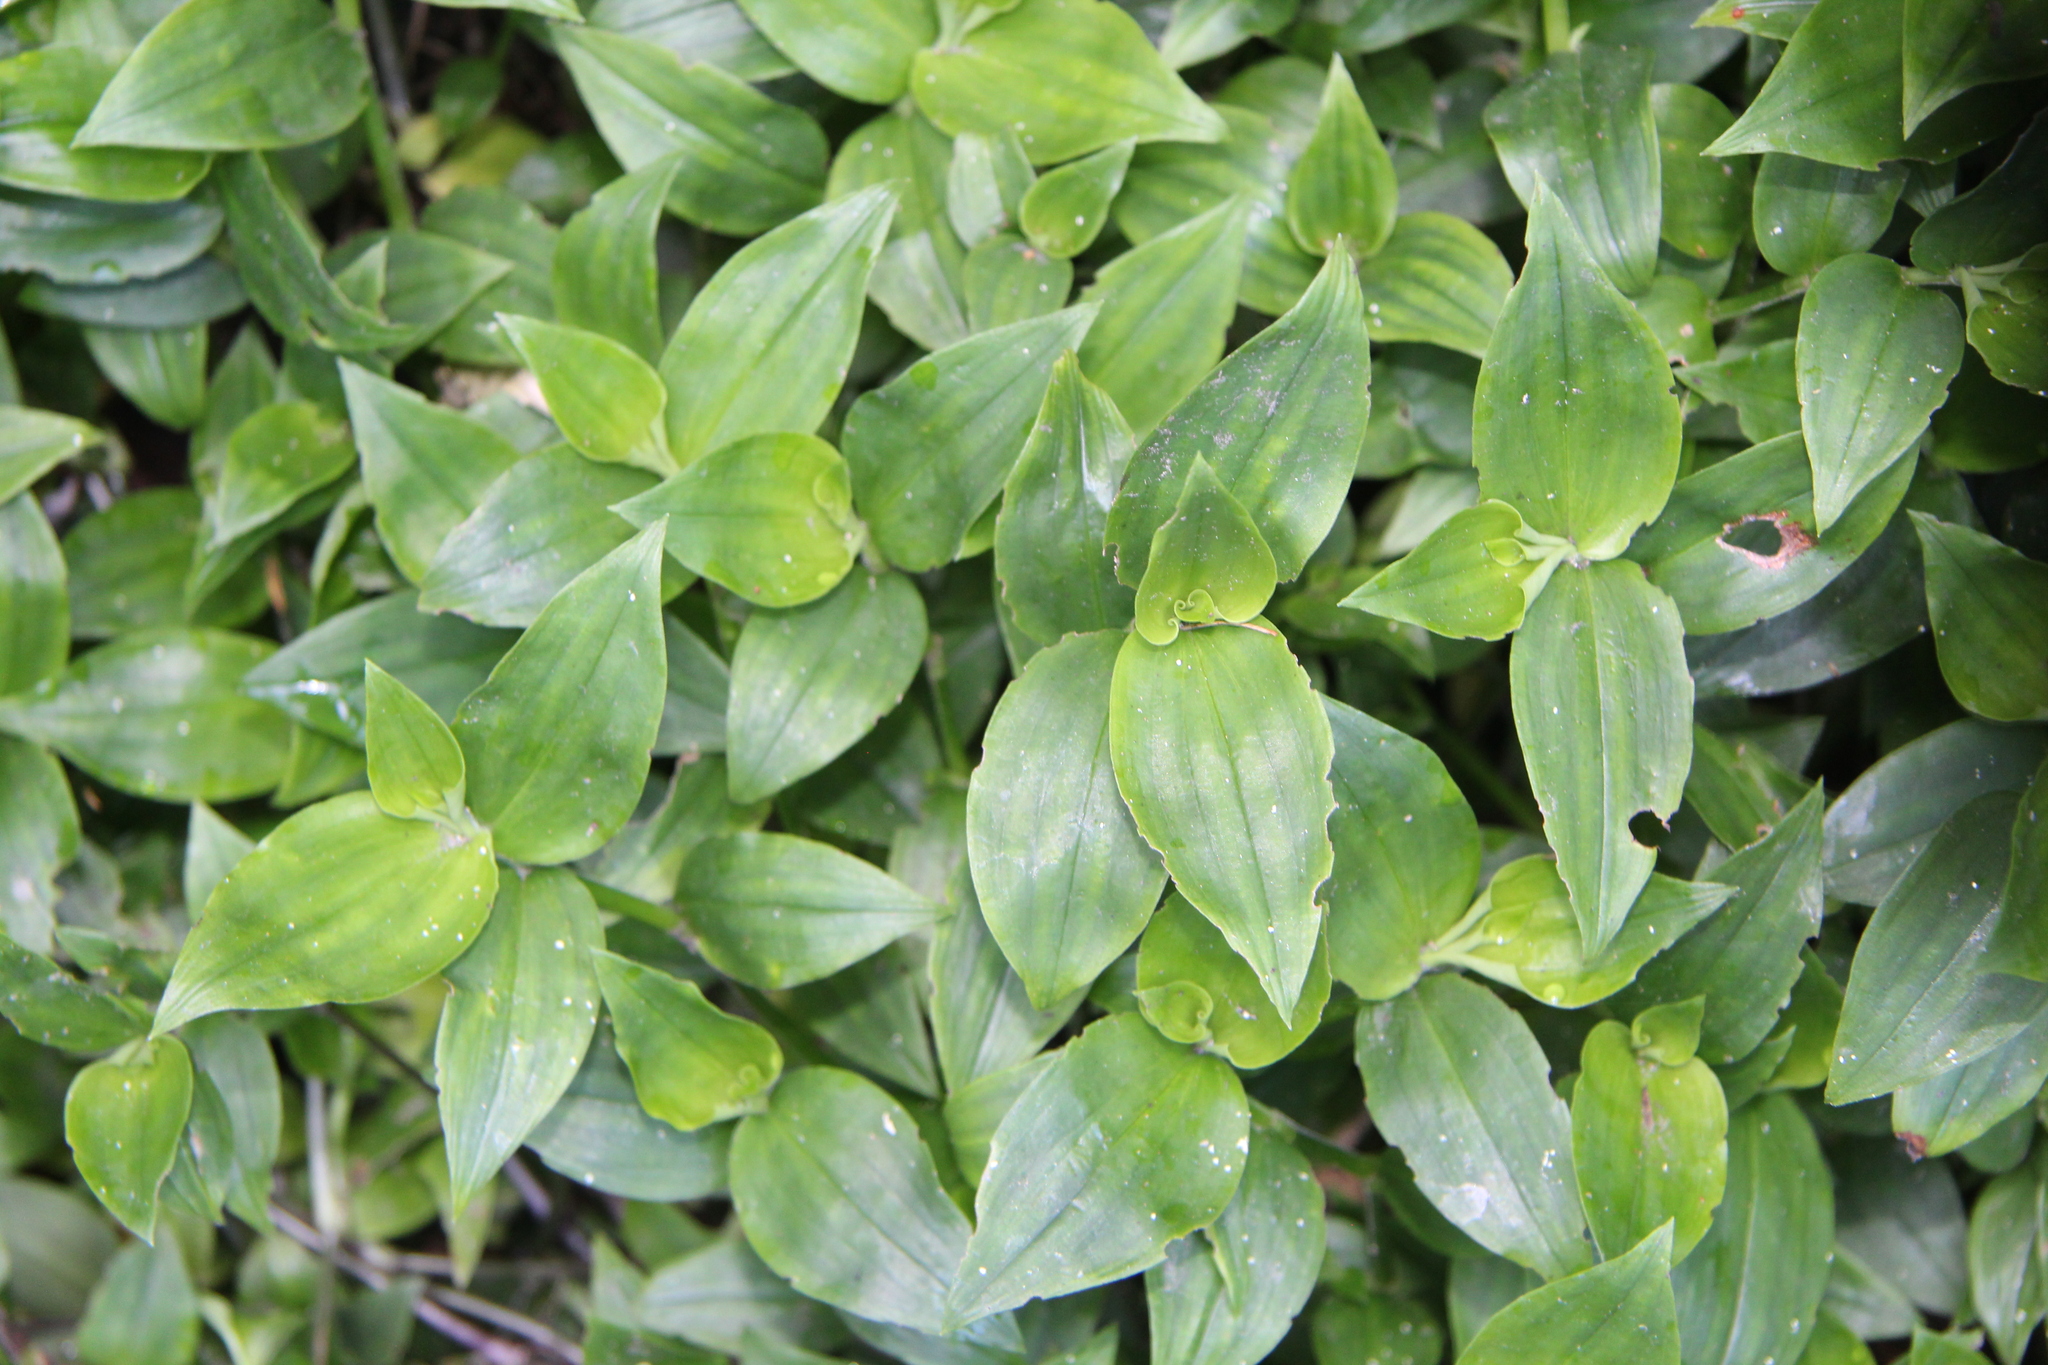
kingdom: Plantae
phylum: Tracheophyta
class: Liliopsida
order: Commelinales
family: Commelinaceae
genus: Tradescantia
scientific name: Tradescantia fluminensis
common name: Wandering-jew
